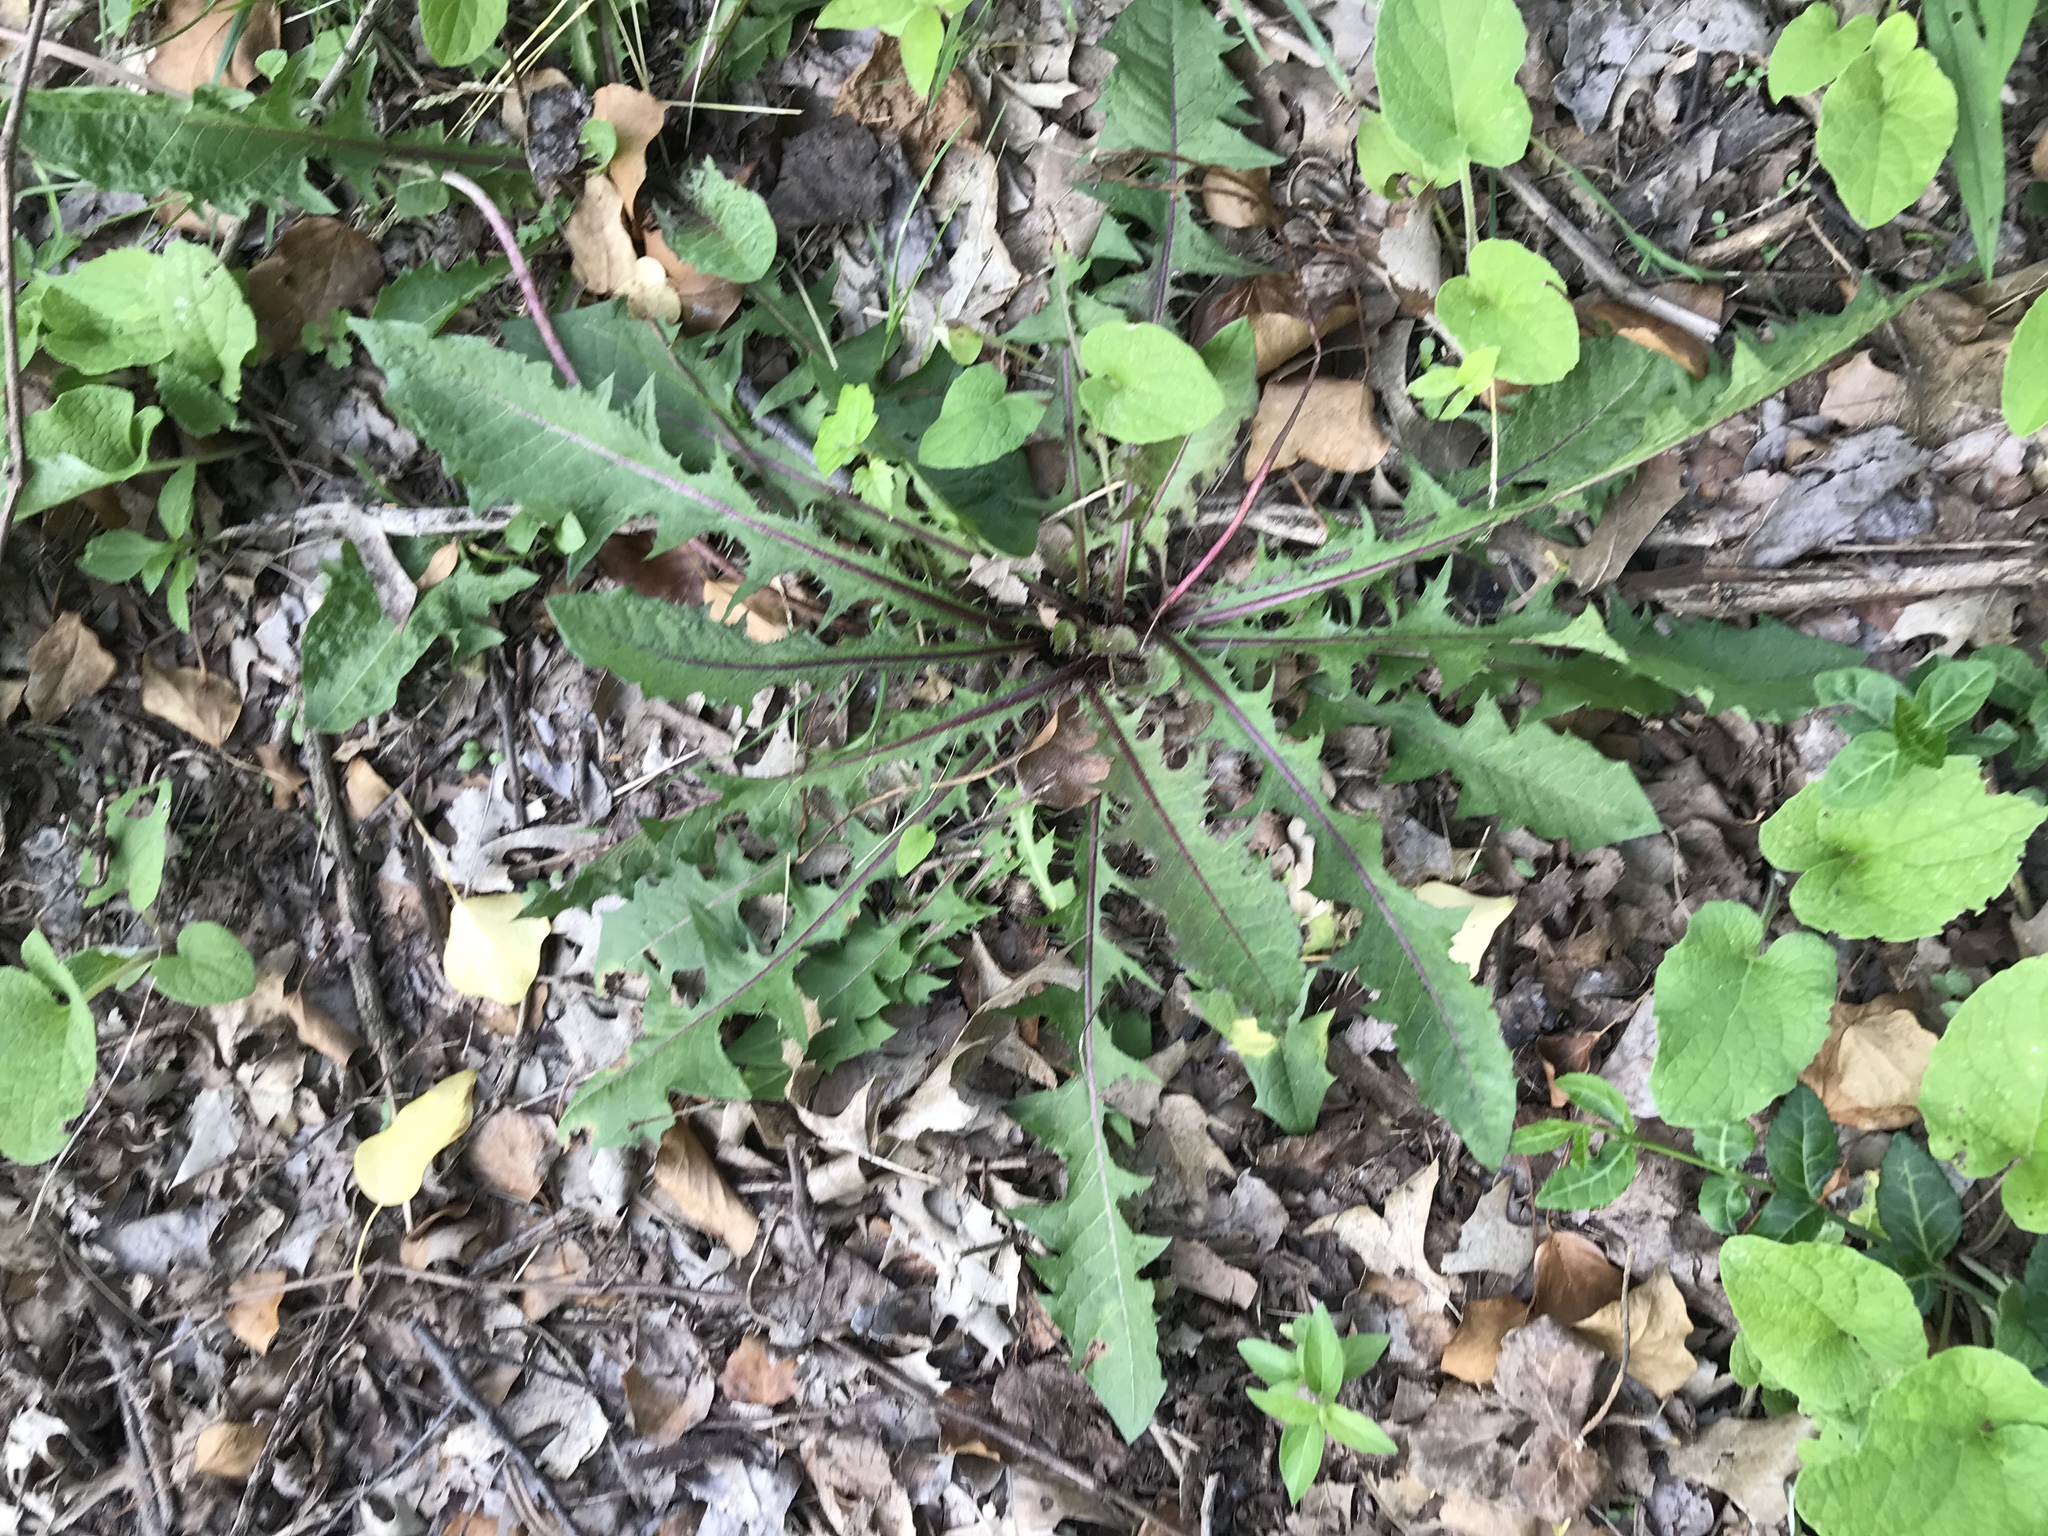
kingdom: Plantae
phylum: Tracheophyta
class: Magnoliopsida
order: Asterales
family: Asteraceae
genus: Taraxacum
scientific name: Taraxacum officinale
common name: Common dandelion
